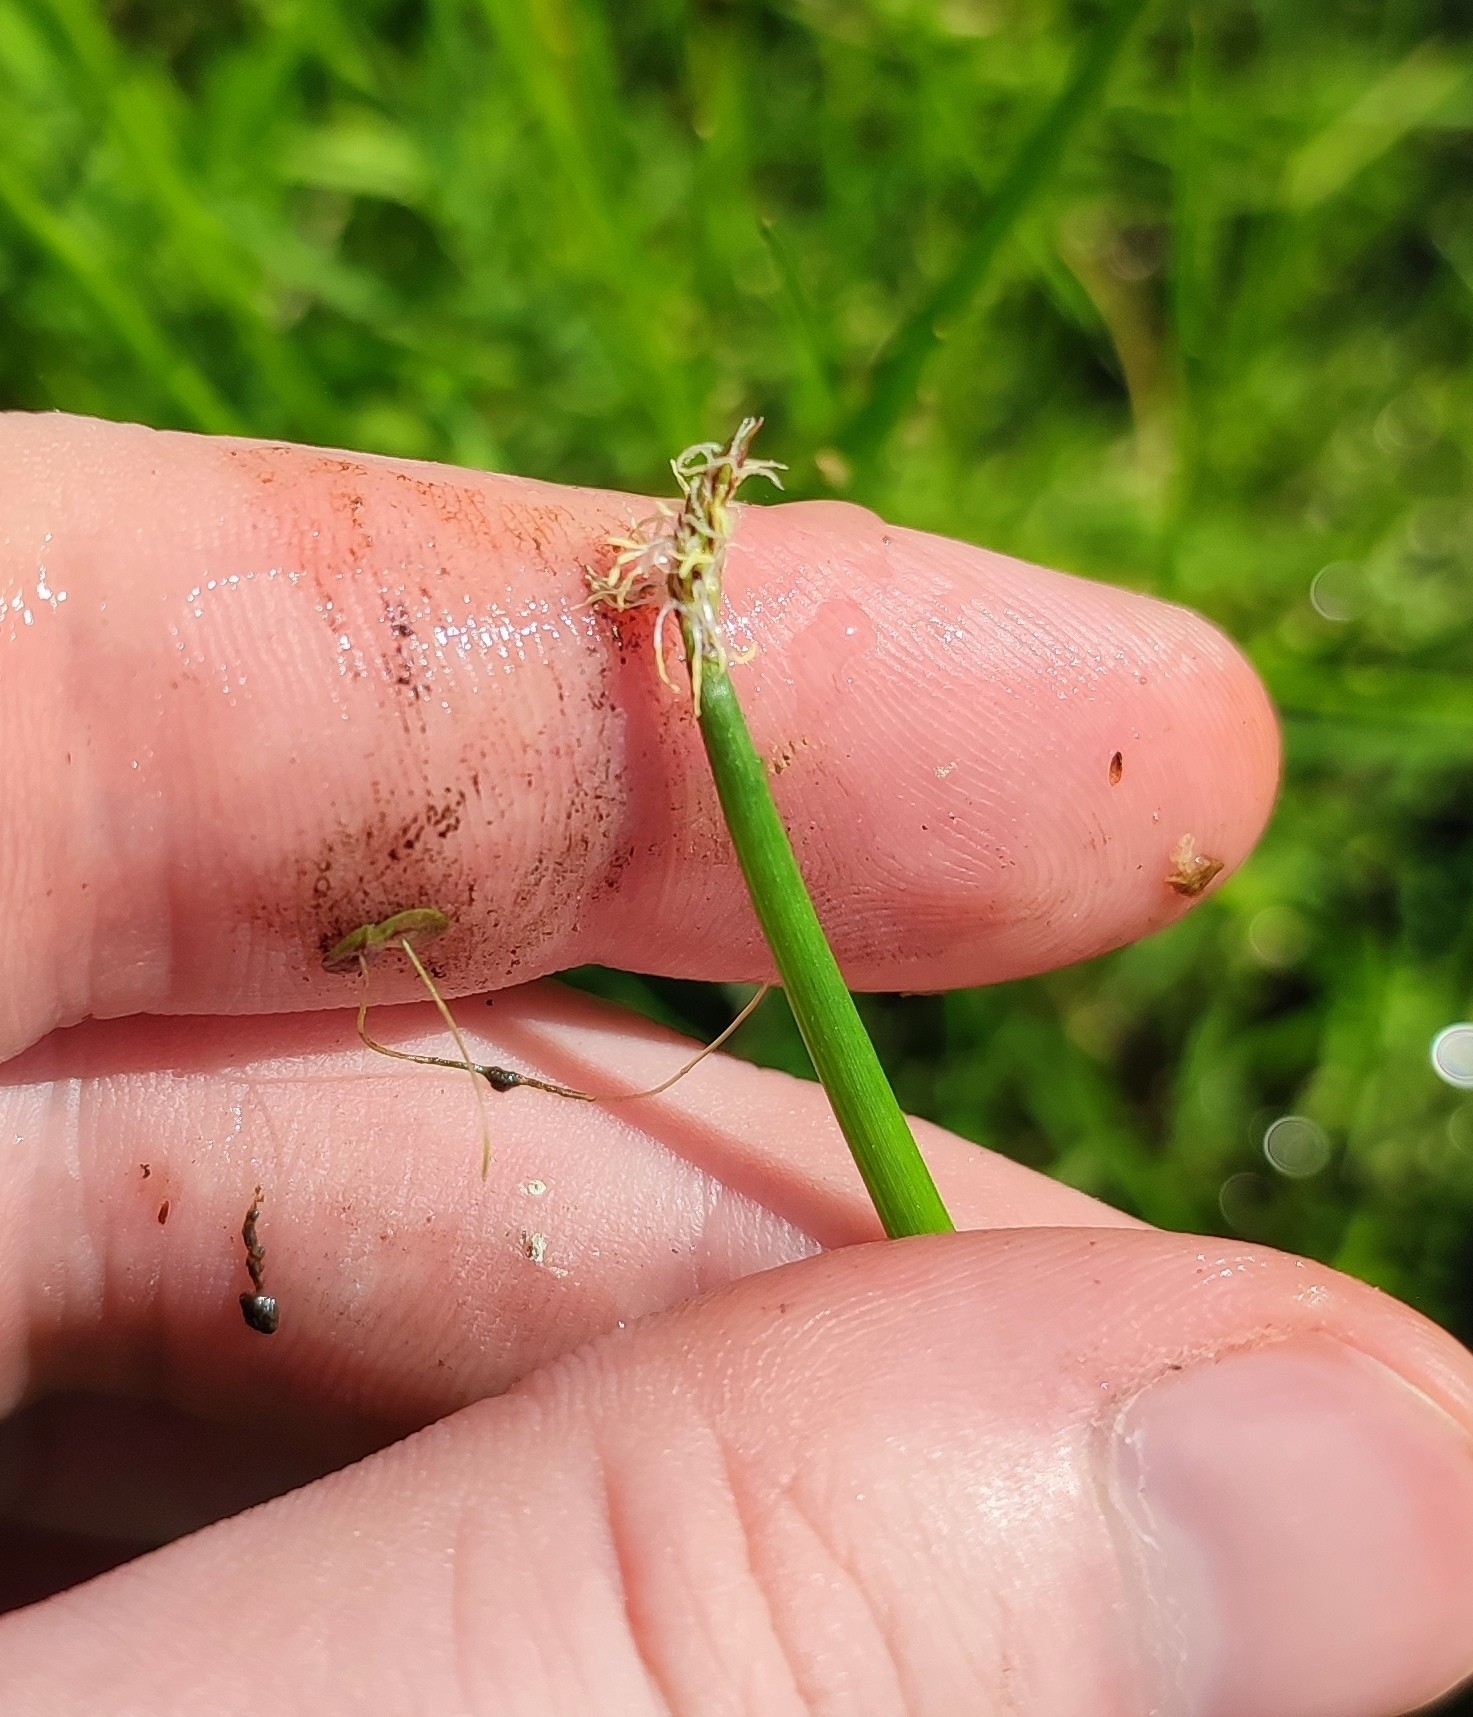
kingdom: Plantae
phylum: Tracheophyta
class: Liliopsida
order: Poales
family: Cyperaceae
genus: Eleocharis
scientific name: Eleocharis palustris
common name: Common spike-rush
